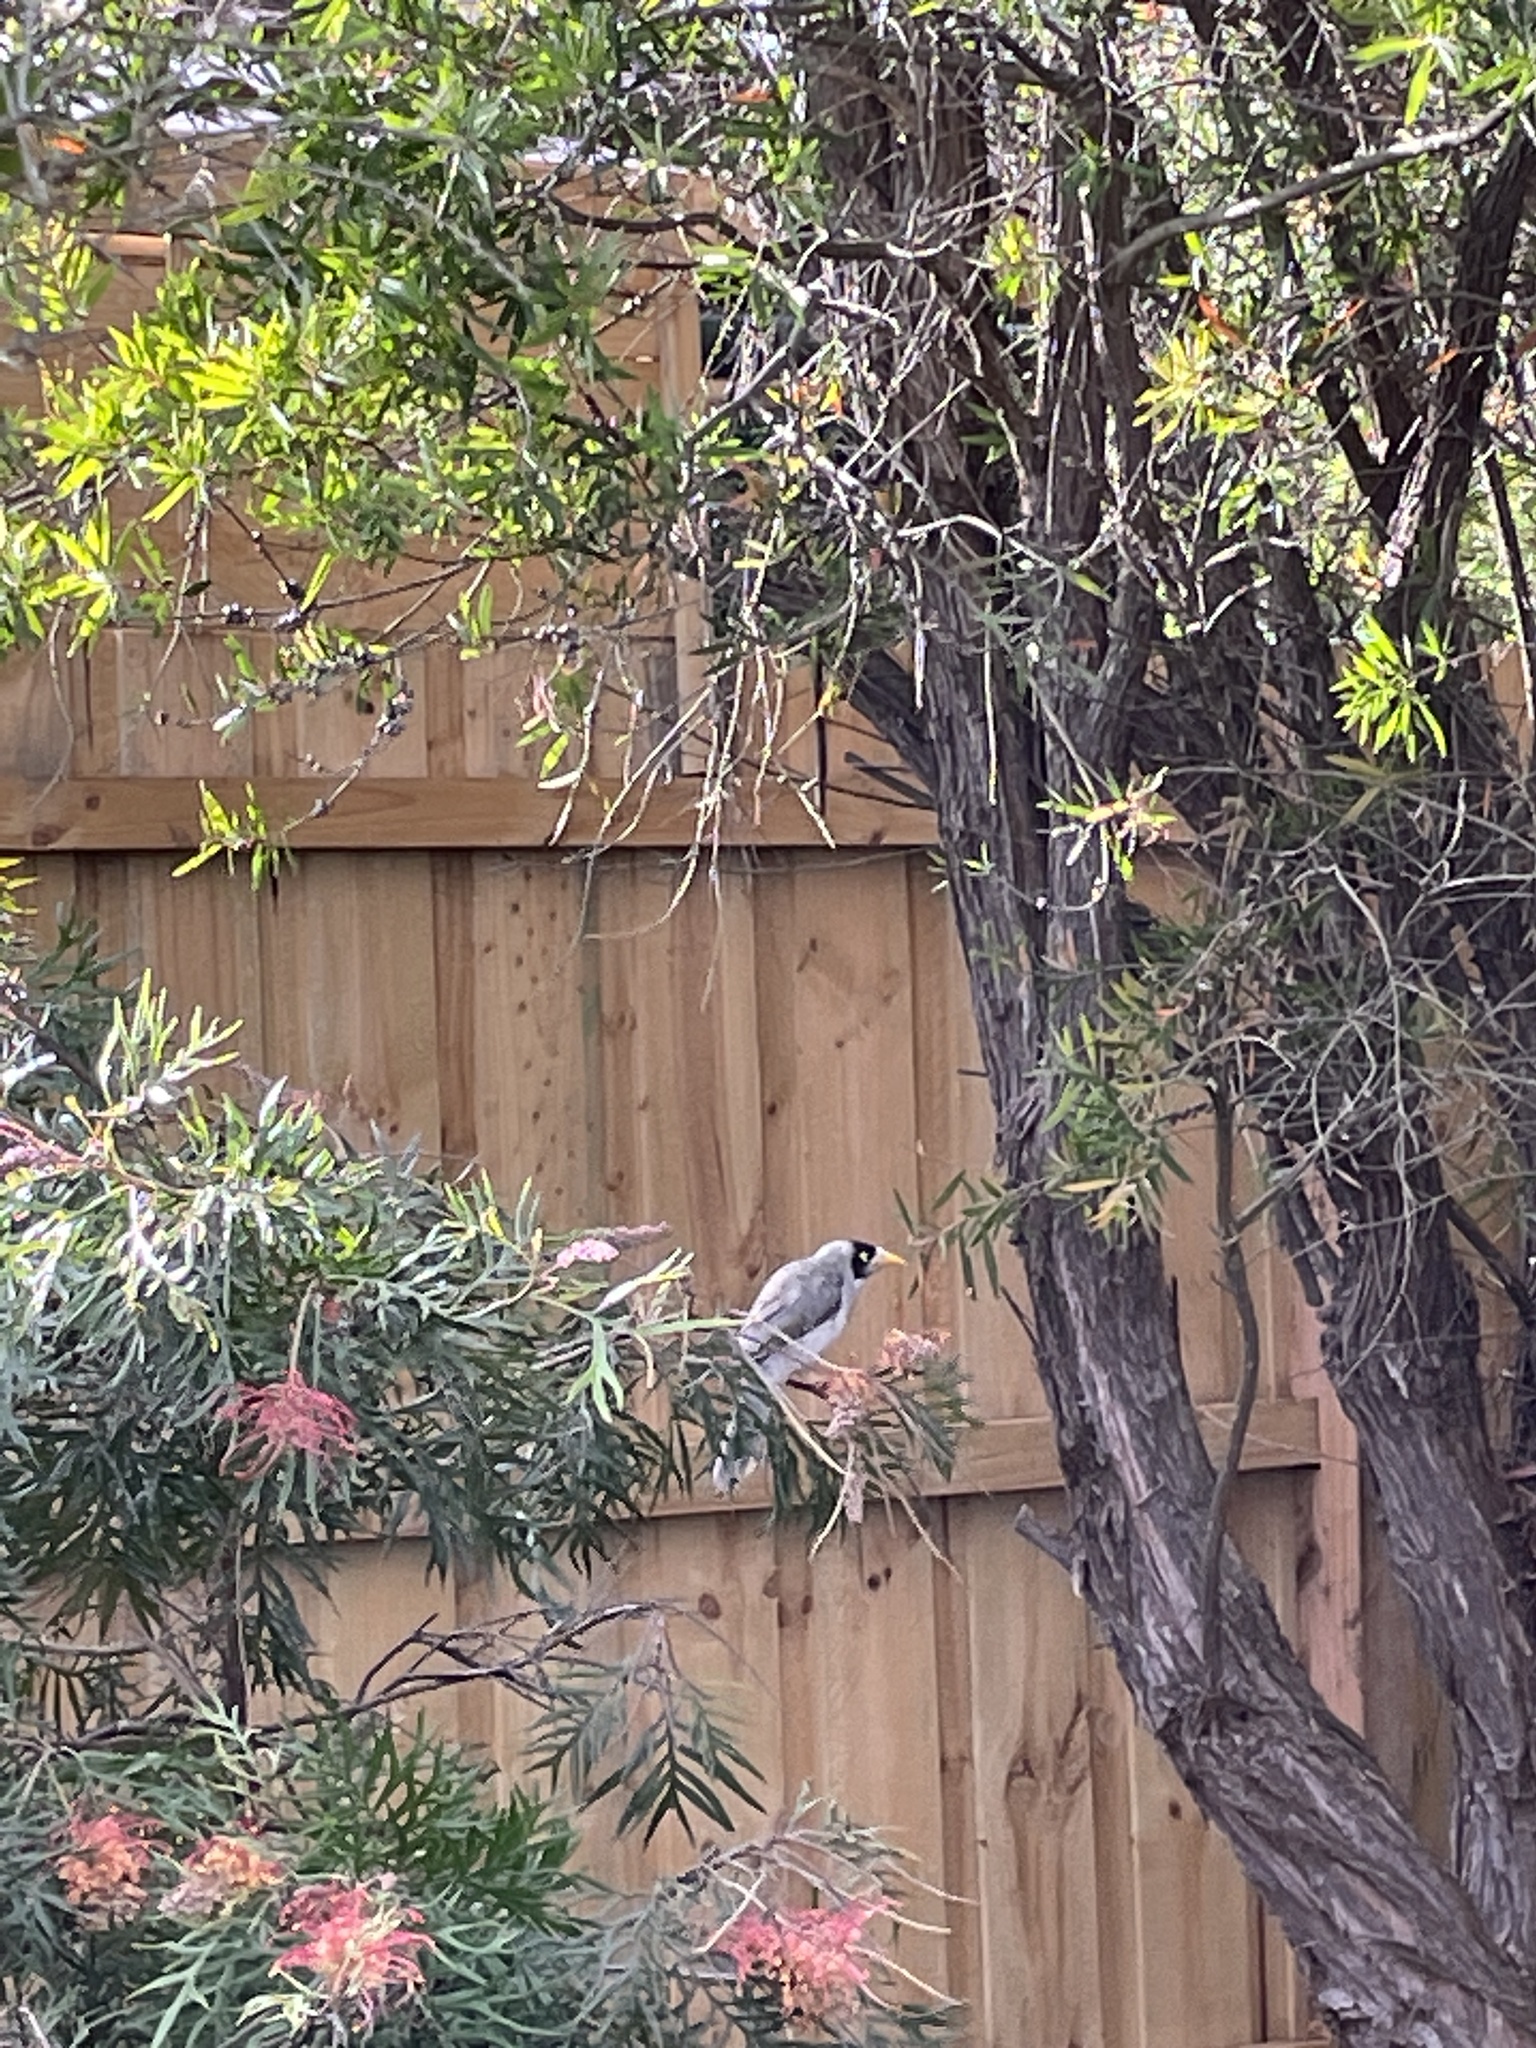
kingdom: Animalia
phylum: Chordata
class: Aves
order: Passeriformes
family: Meliphagidae
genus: Manorina
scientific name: Manorina melanocephala
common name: Noisy miner
